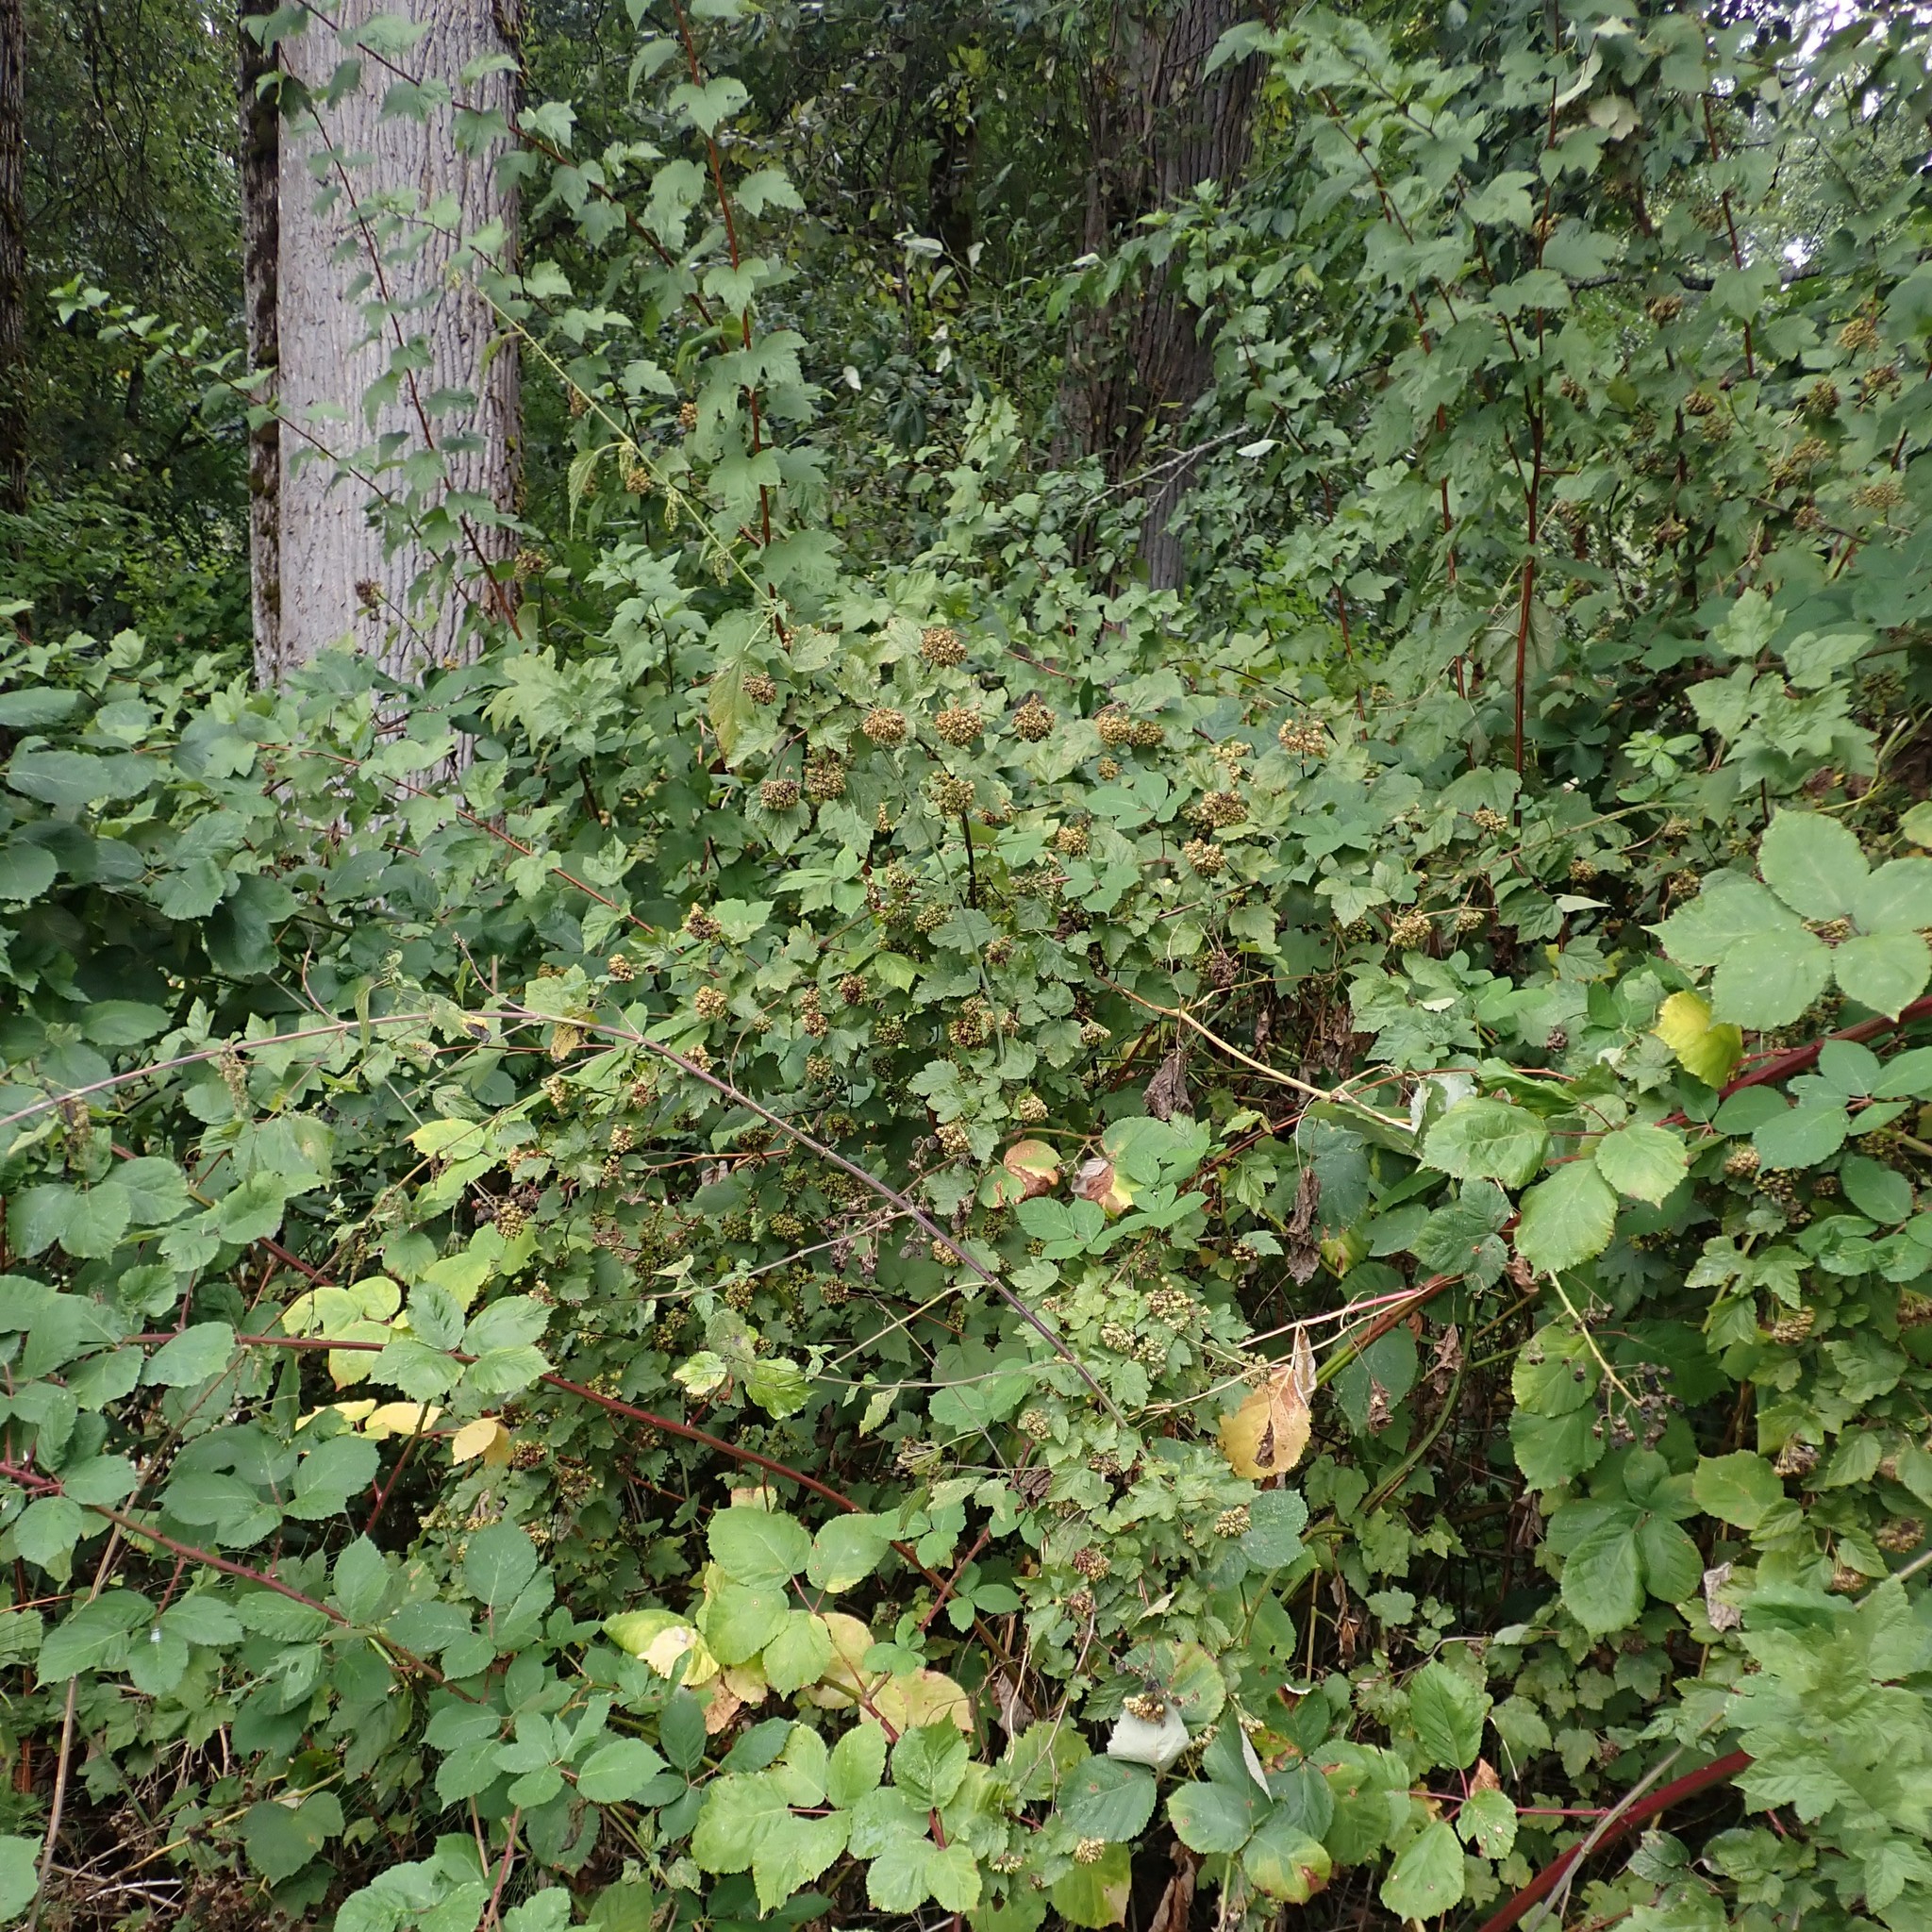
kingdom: Plantae
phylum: Tracheophyta
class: Magnoliopsida
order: Rosales
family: Rosaceae
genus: Physocarpus
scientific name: Physocarpus capitatus
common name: Pacific ninebark
